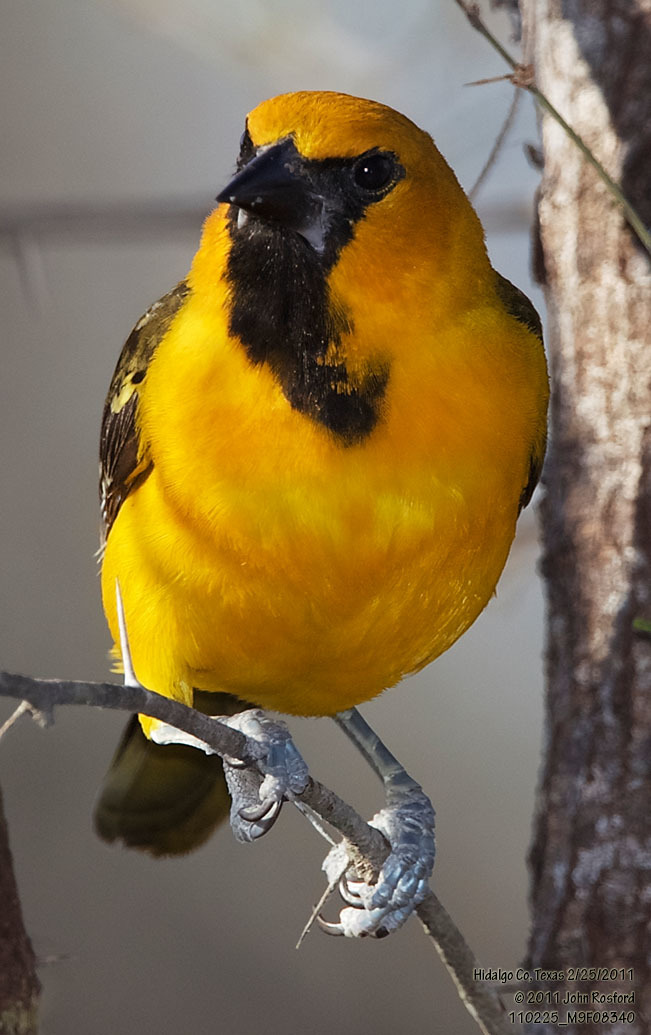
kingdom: Animalia
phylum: Chordata
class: Aves
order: Passeriformes
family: Icteridae
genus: Icterus
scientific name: Icterus gularis
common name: Altamira oriole
